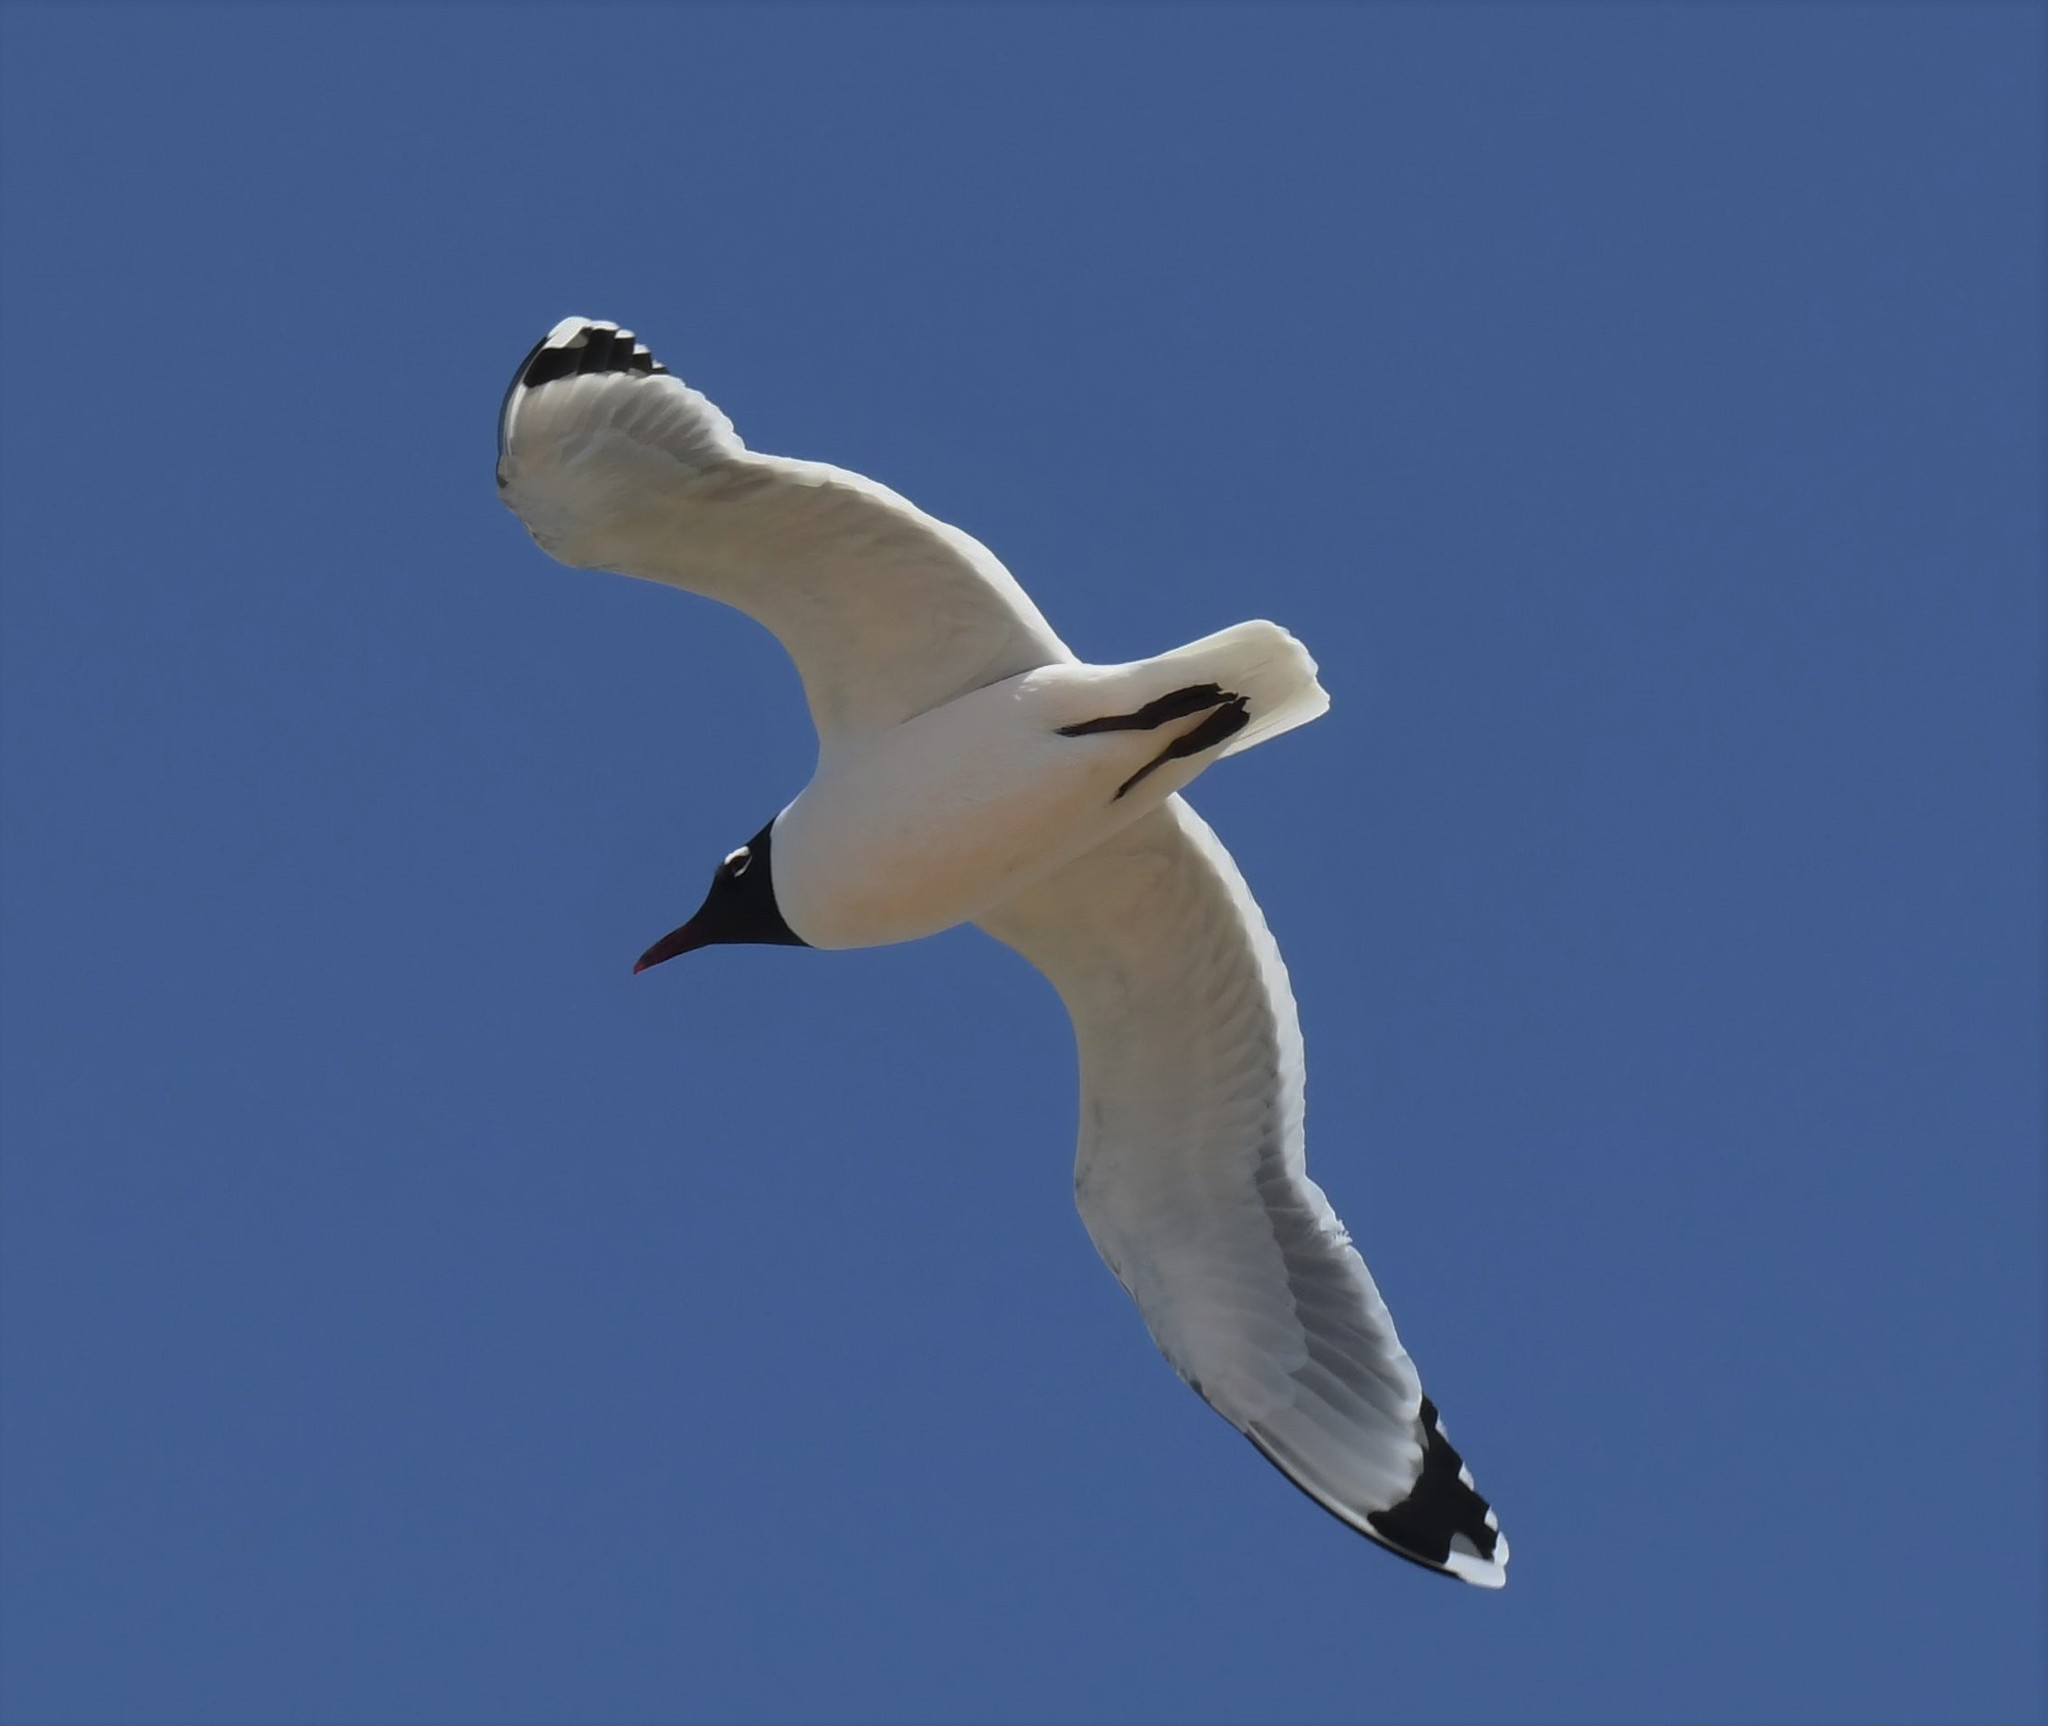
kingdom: Animalia
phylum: Chordata
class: Aves
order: Charadriiformes
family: Laridae
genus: Leucophaeus
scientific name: Leucophaeus pipixcan
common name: Franklin's gull
